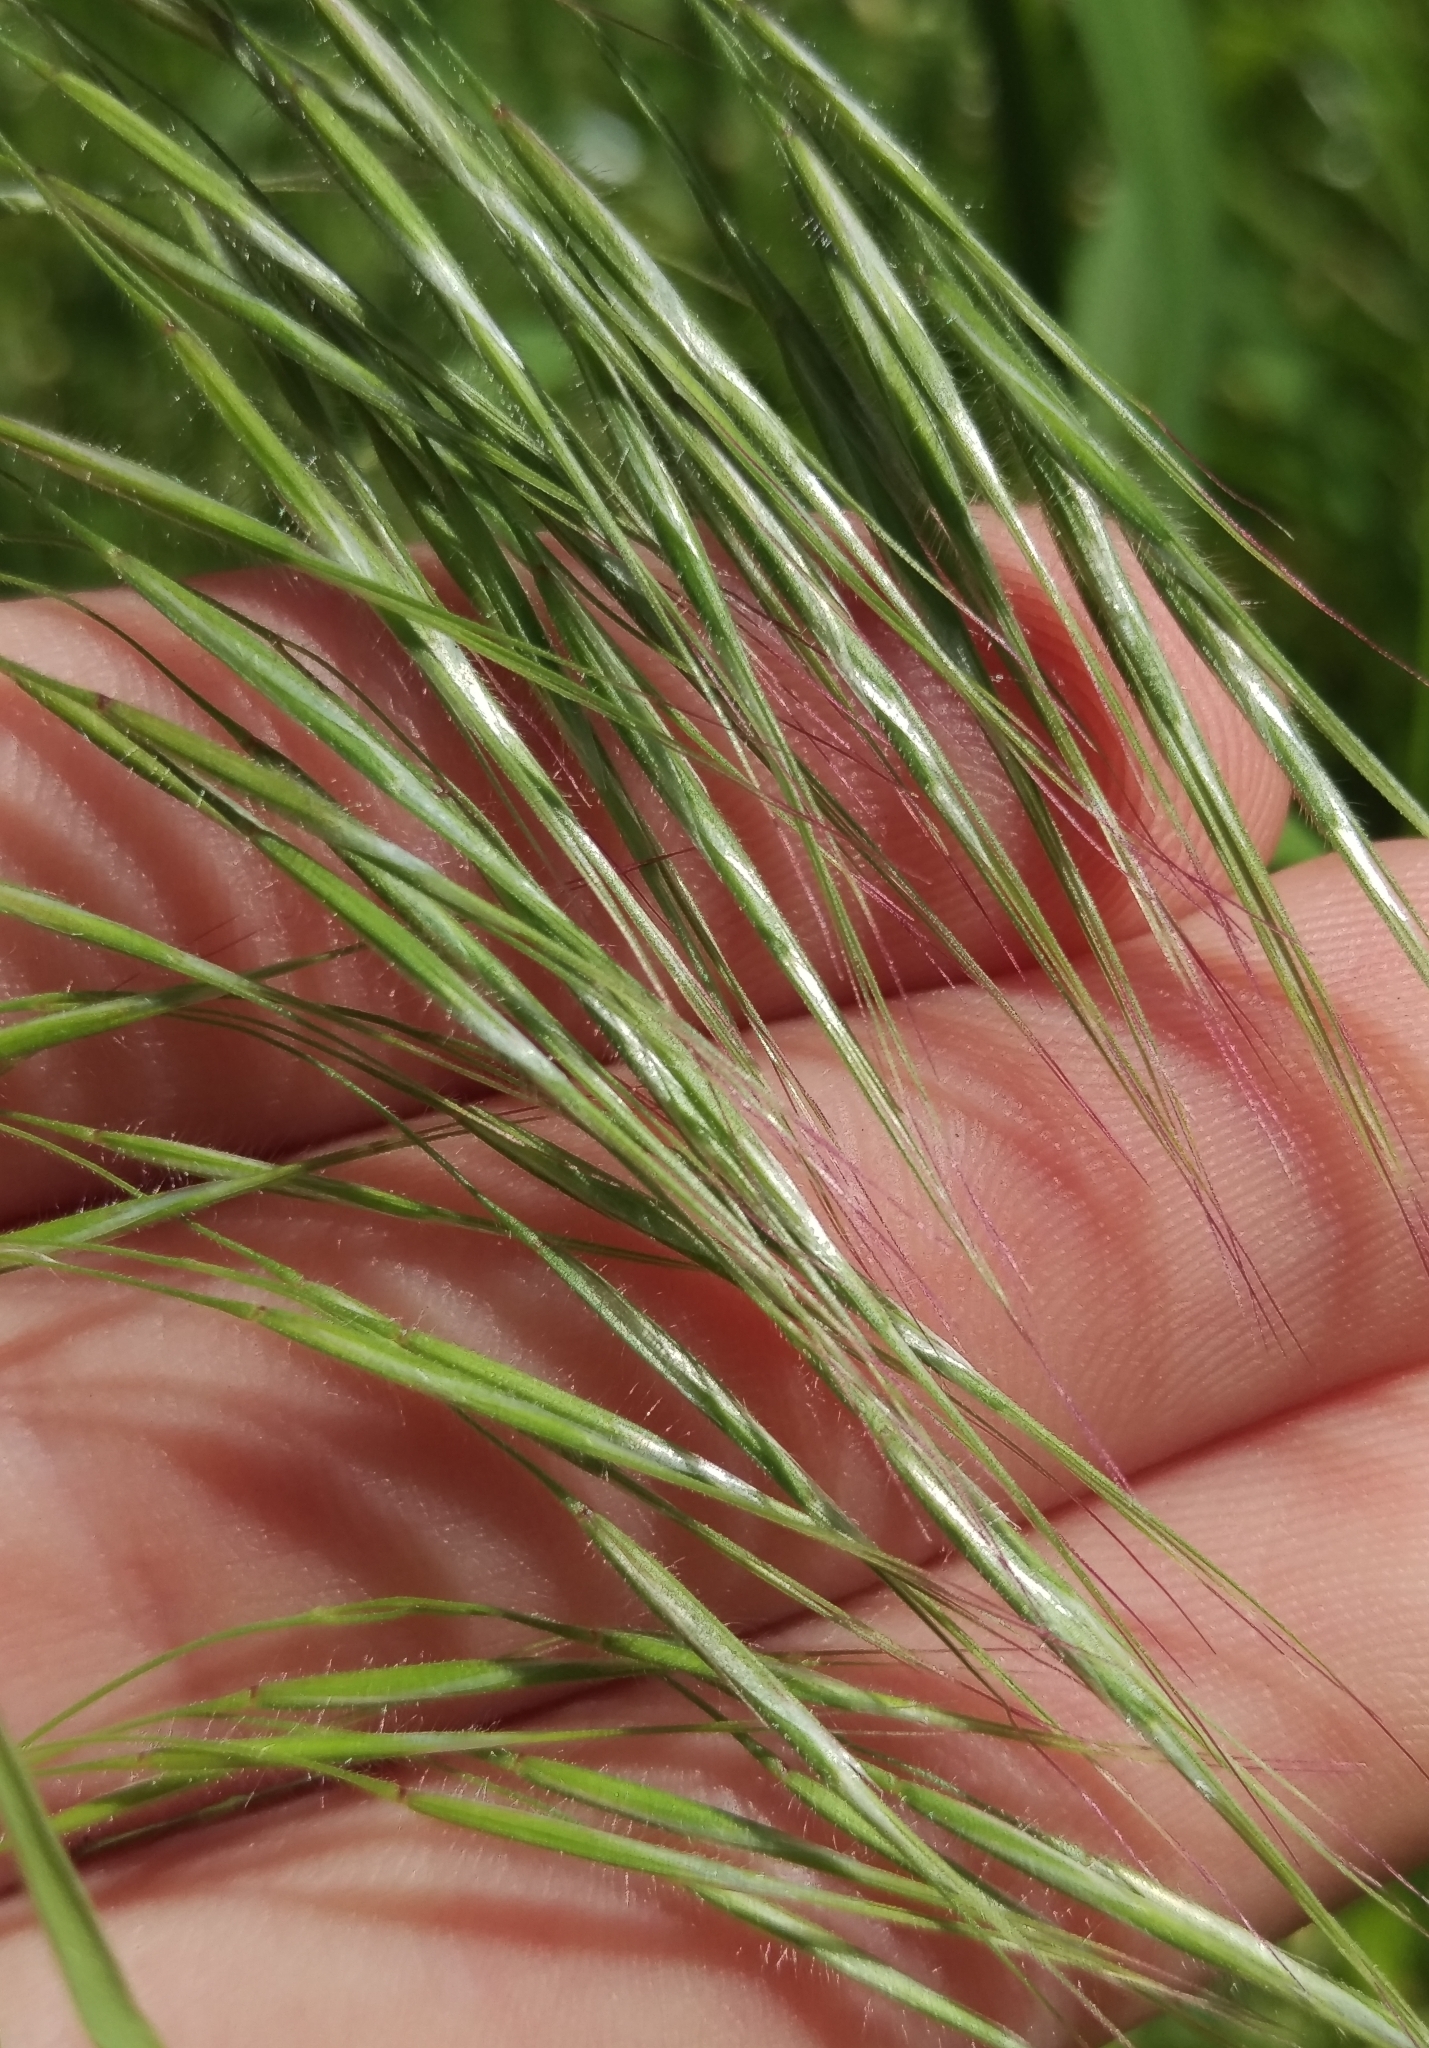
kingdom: Plantae
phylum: Tracheophyta
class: Liliopsida
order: Poales
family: Poaceae
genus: Bromus
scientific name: Bromus tectorum
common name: Cheatgrass
